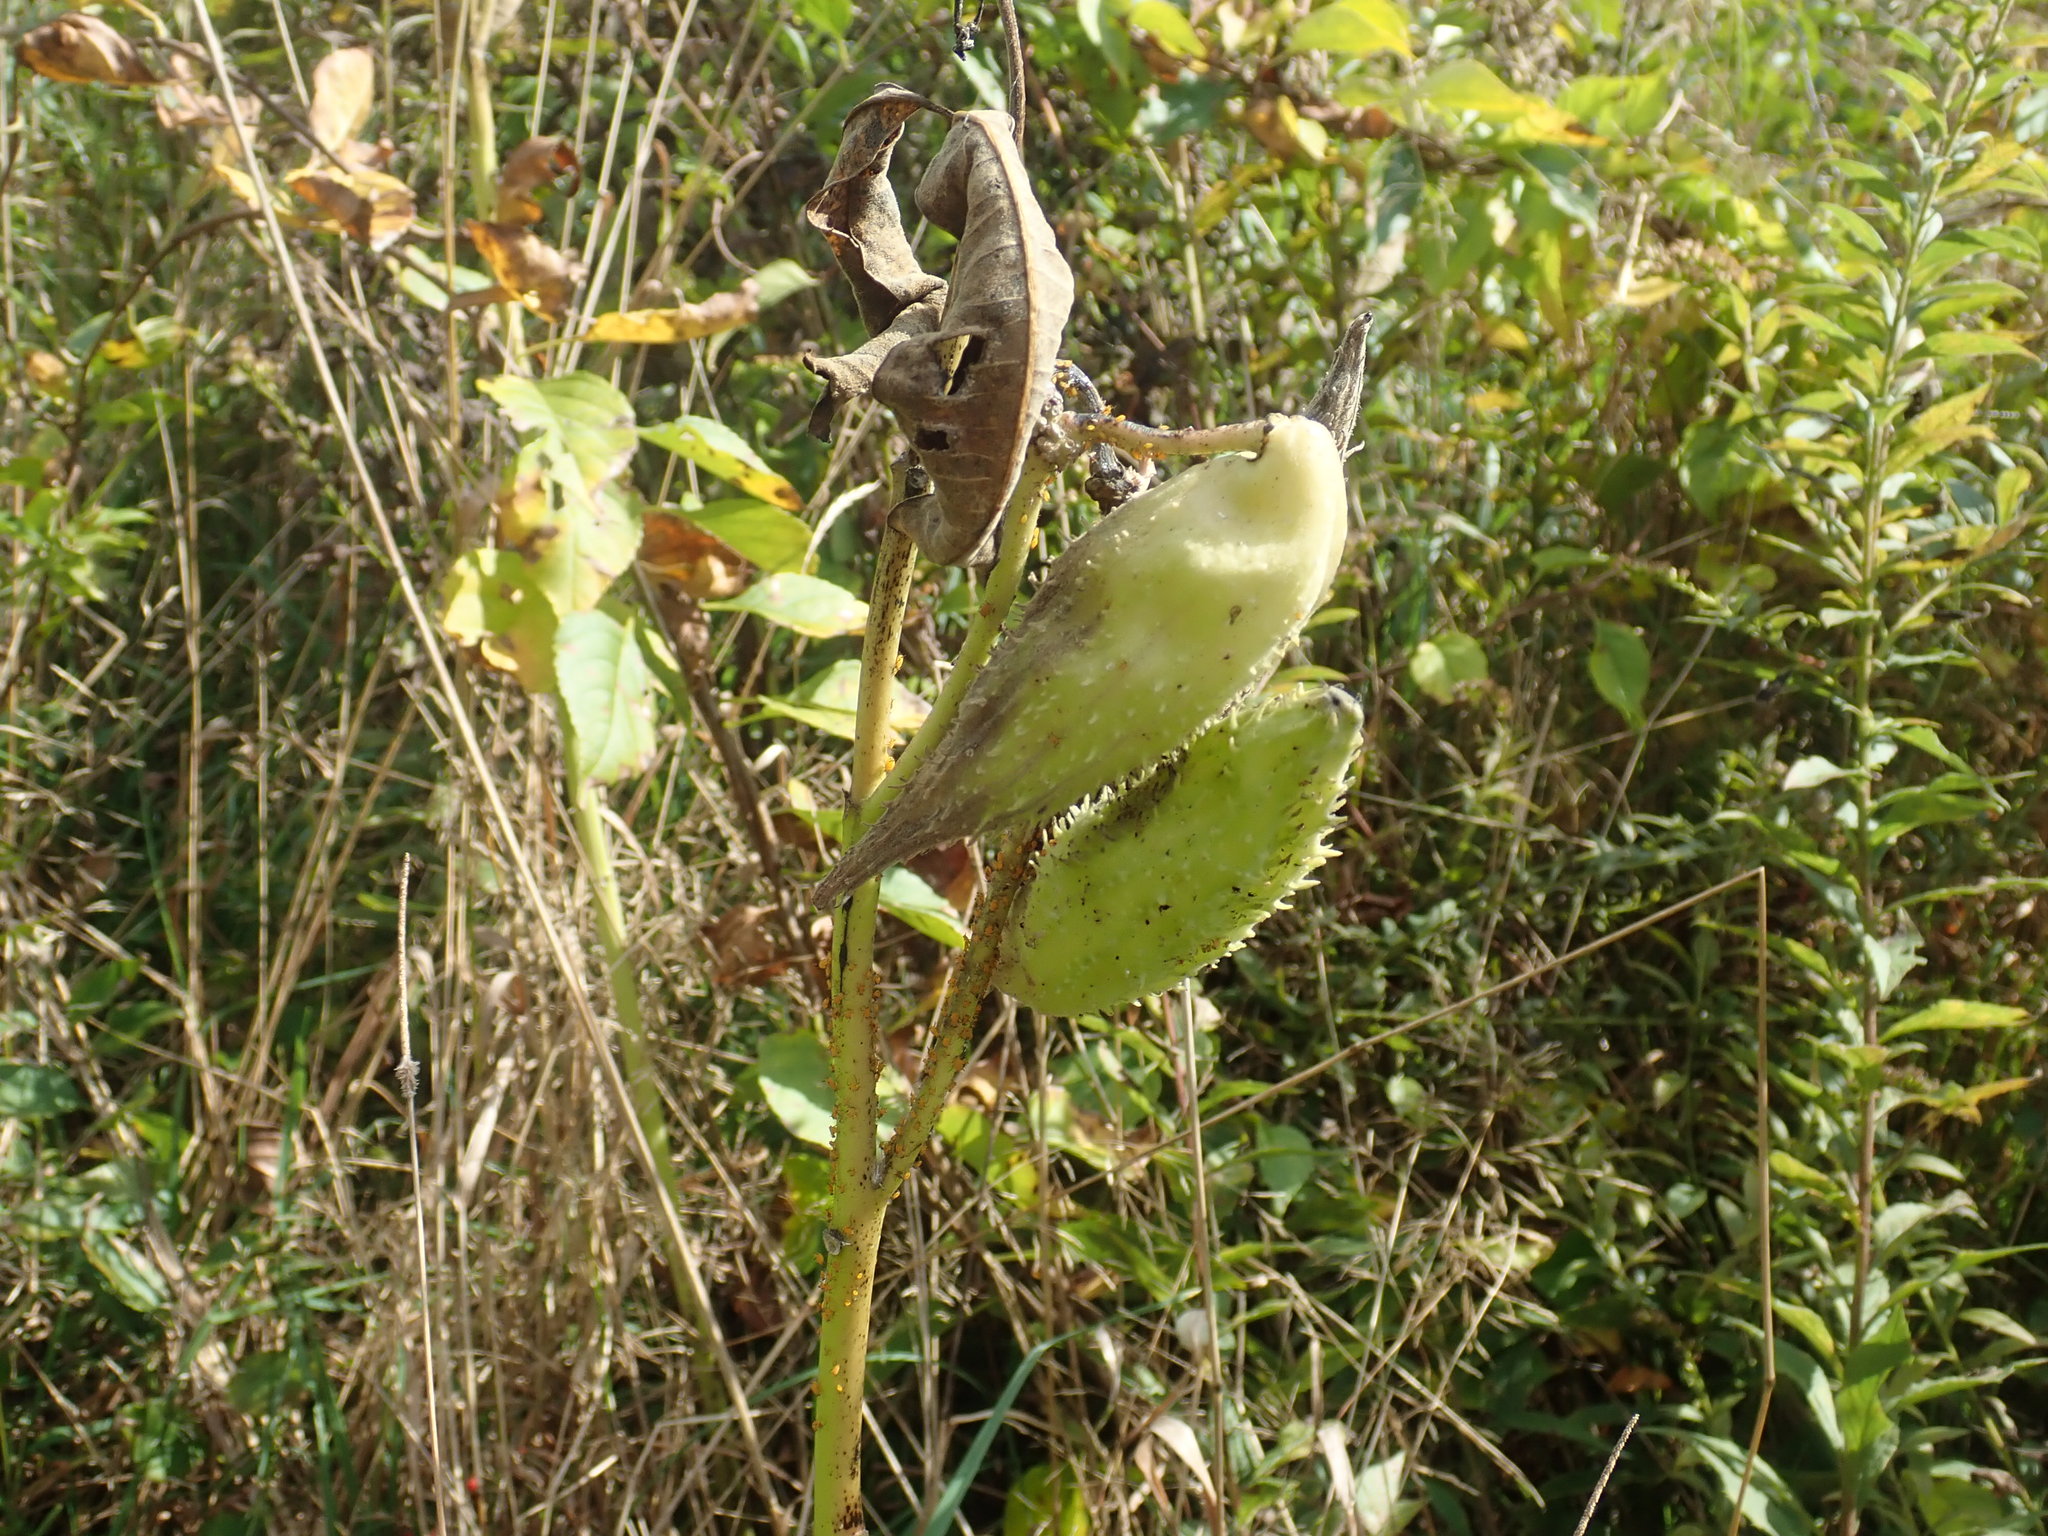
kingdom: Plantae
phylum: Tracheophyta
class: Magnoliopsida
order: Gentianales
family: Apocynaceae
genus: Asclepias
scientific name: Asclepias syriaca
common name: Common milkweed
